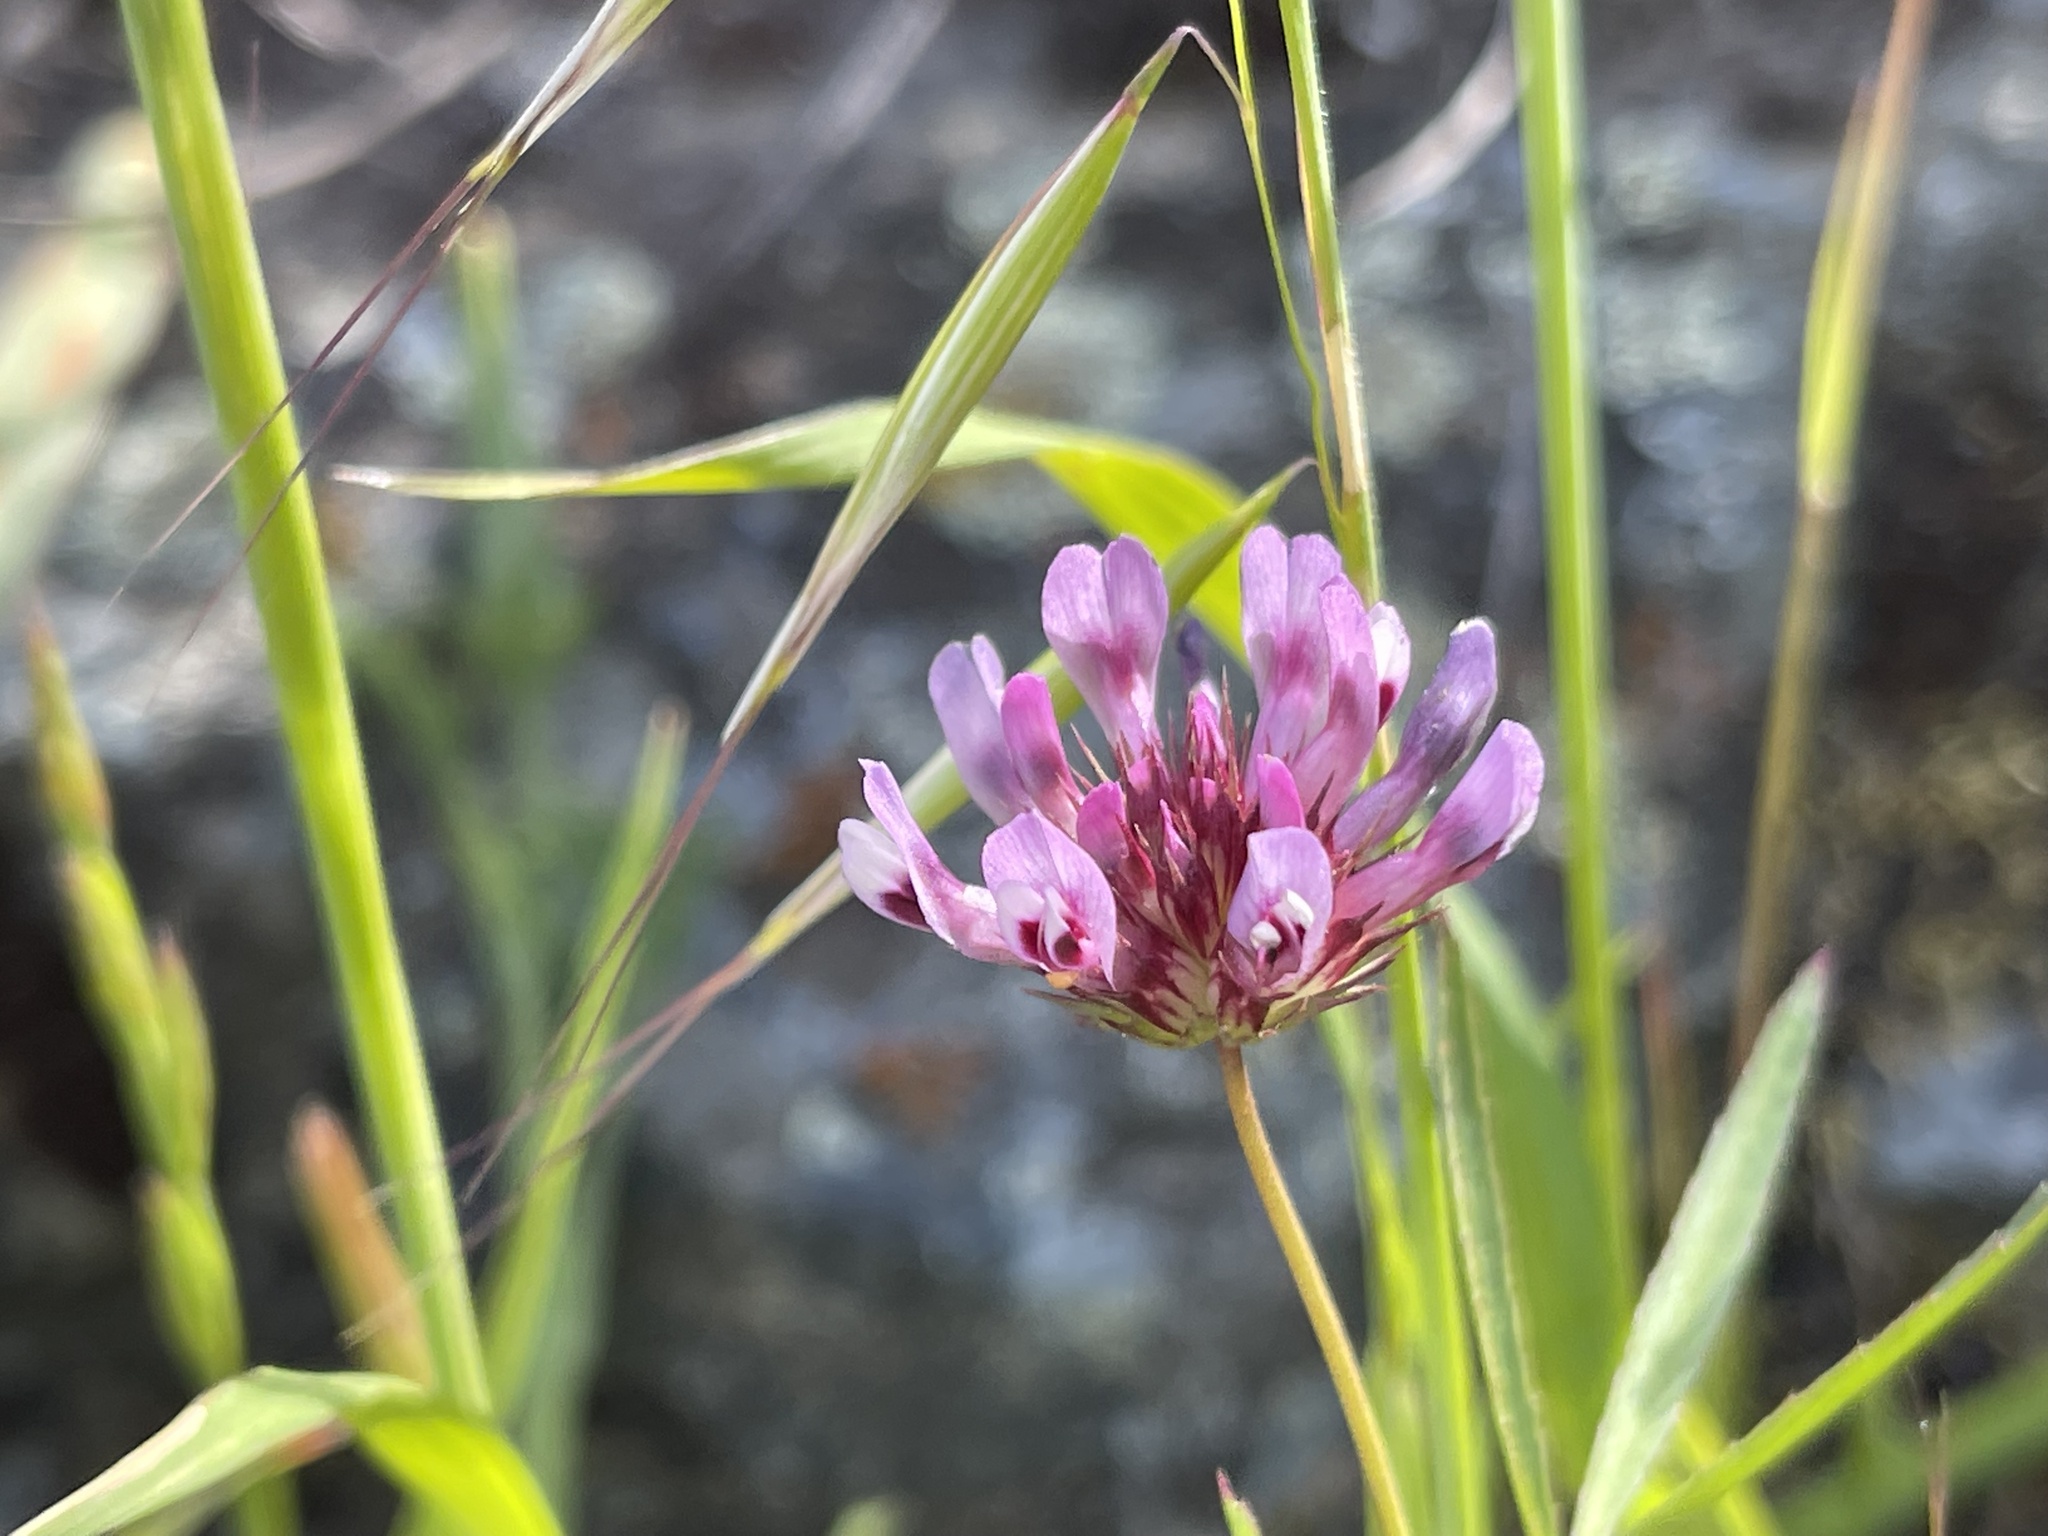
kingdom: Plantae
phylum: Tracheophyta
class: Magnoliopsida
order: Fabales
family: Fabaceae
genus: Trifolium
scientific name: Trifolium willdenovii
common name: Tomcat clover
